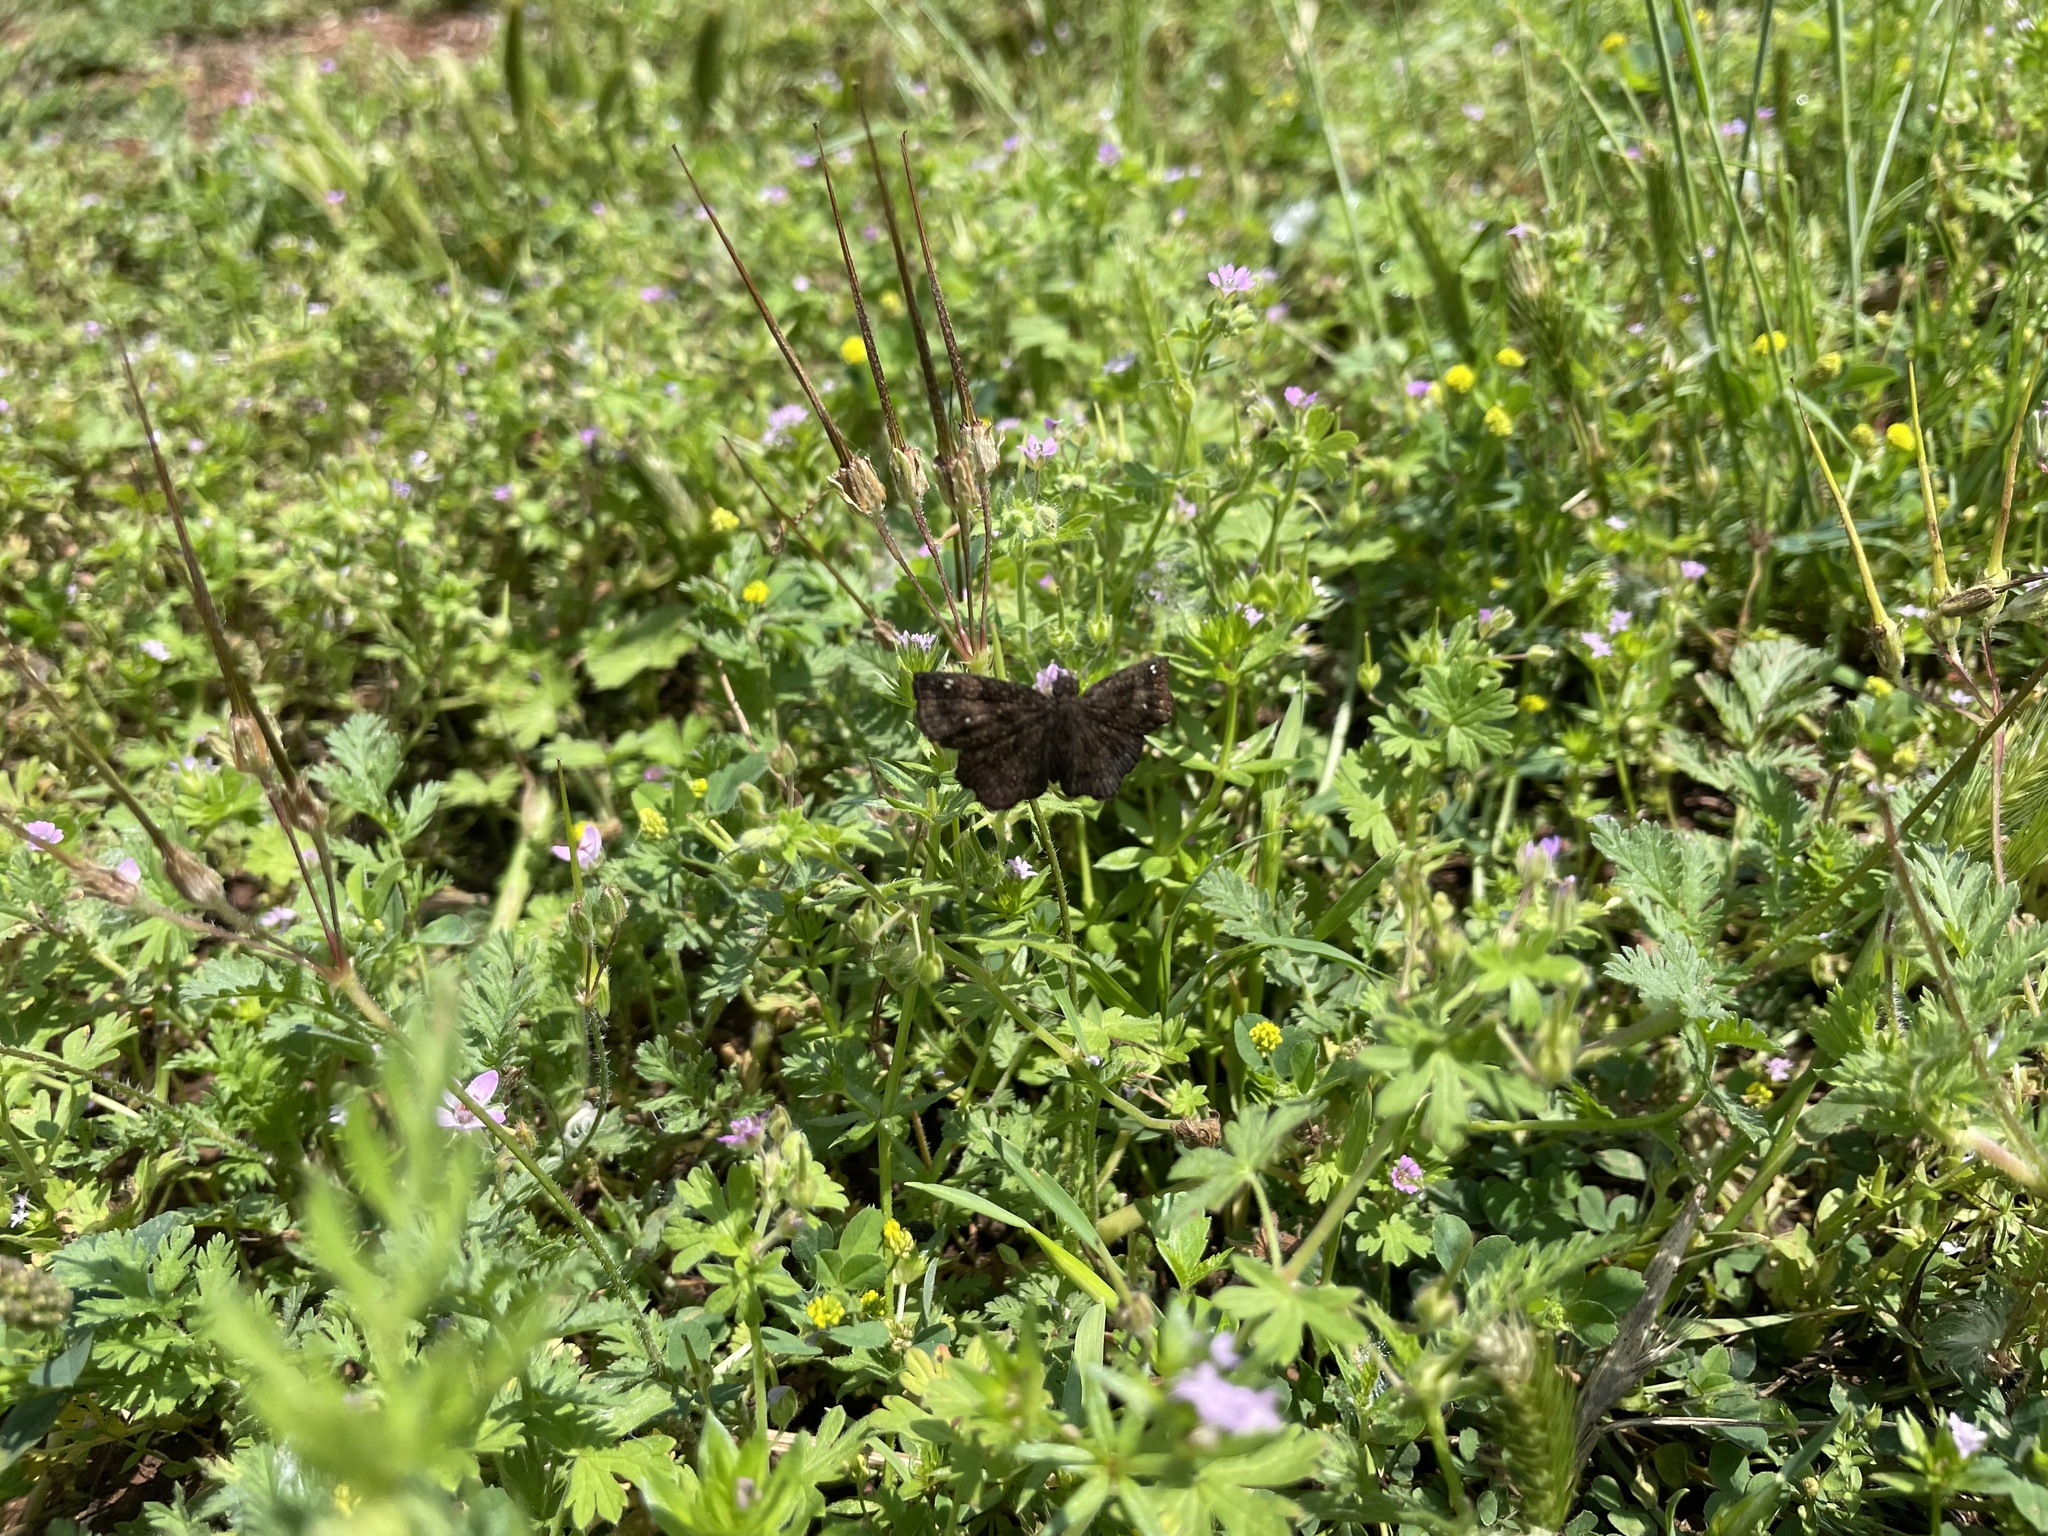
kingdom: Animalia
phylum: Arthropoda
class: Insecta
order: Lepidoptera
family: Hesperiidae
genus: Staphylus
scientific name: Staphylus mazans
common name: Mazans scallopwing
